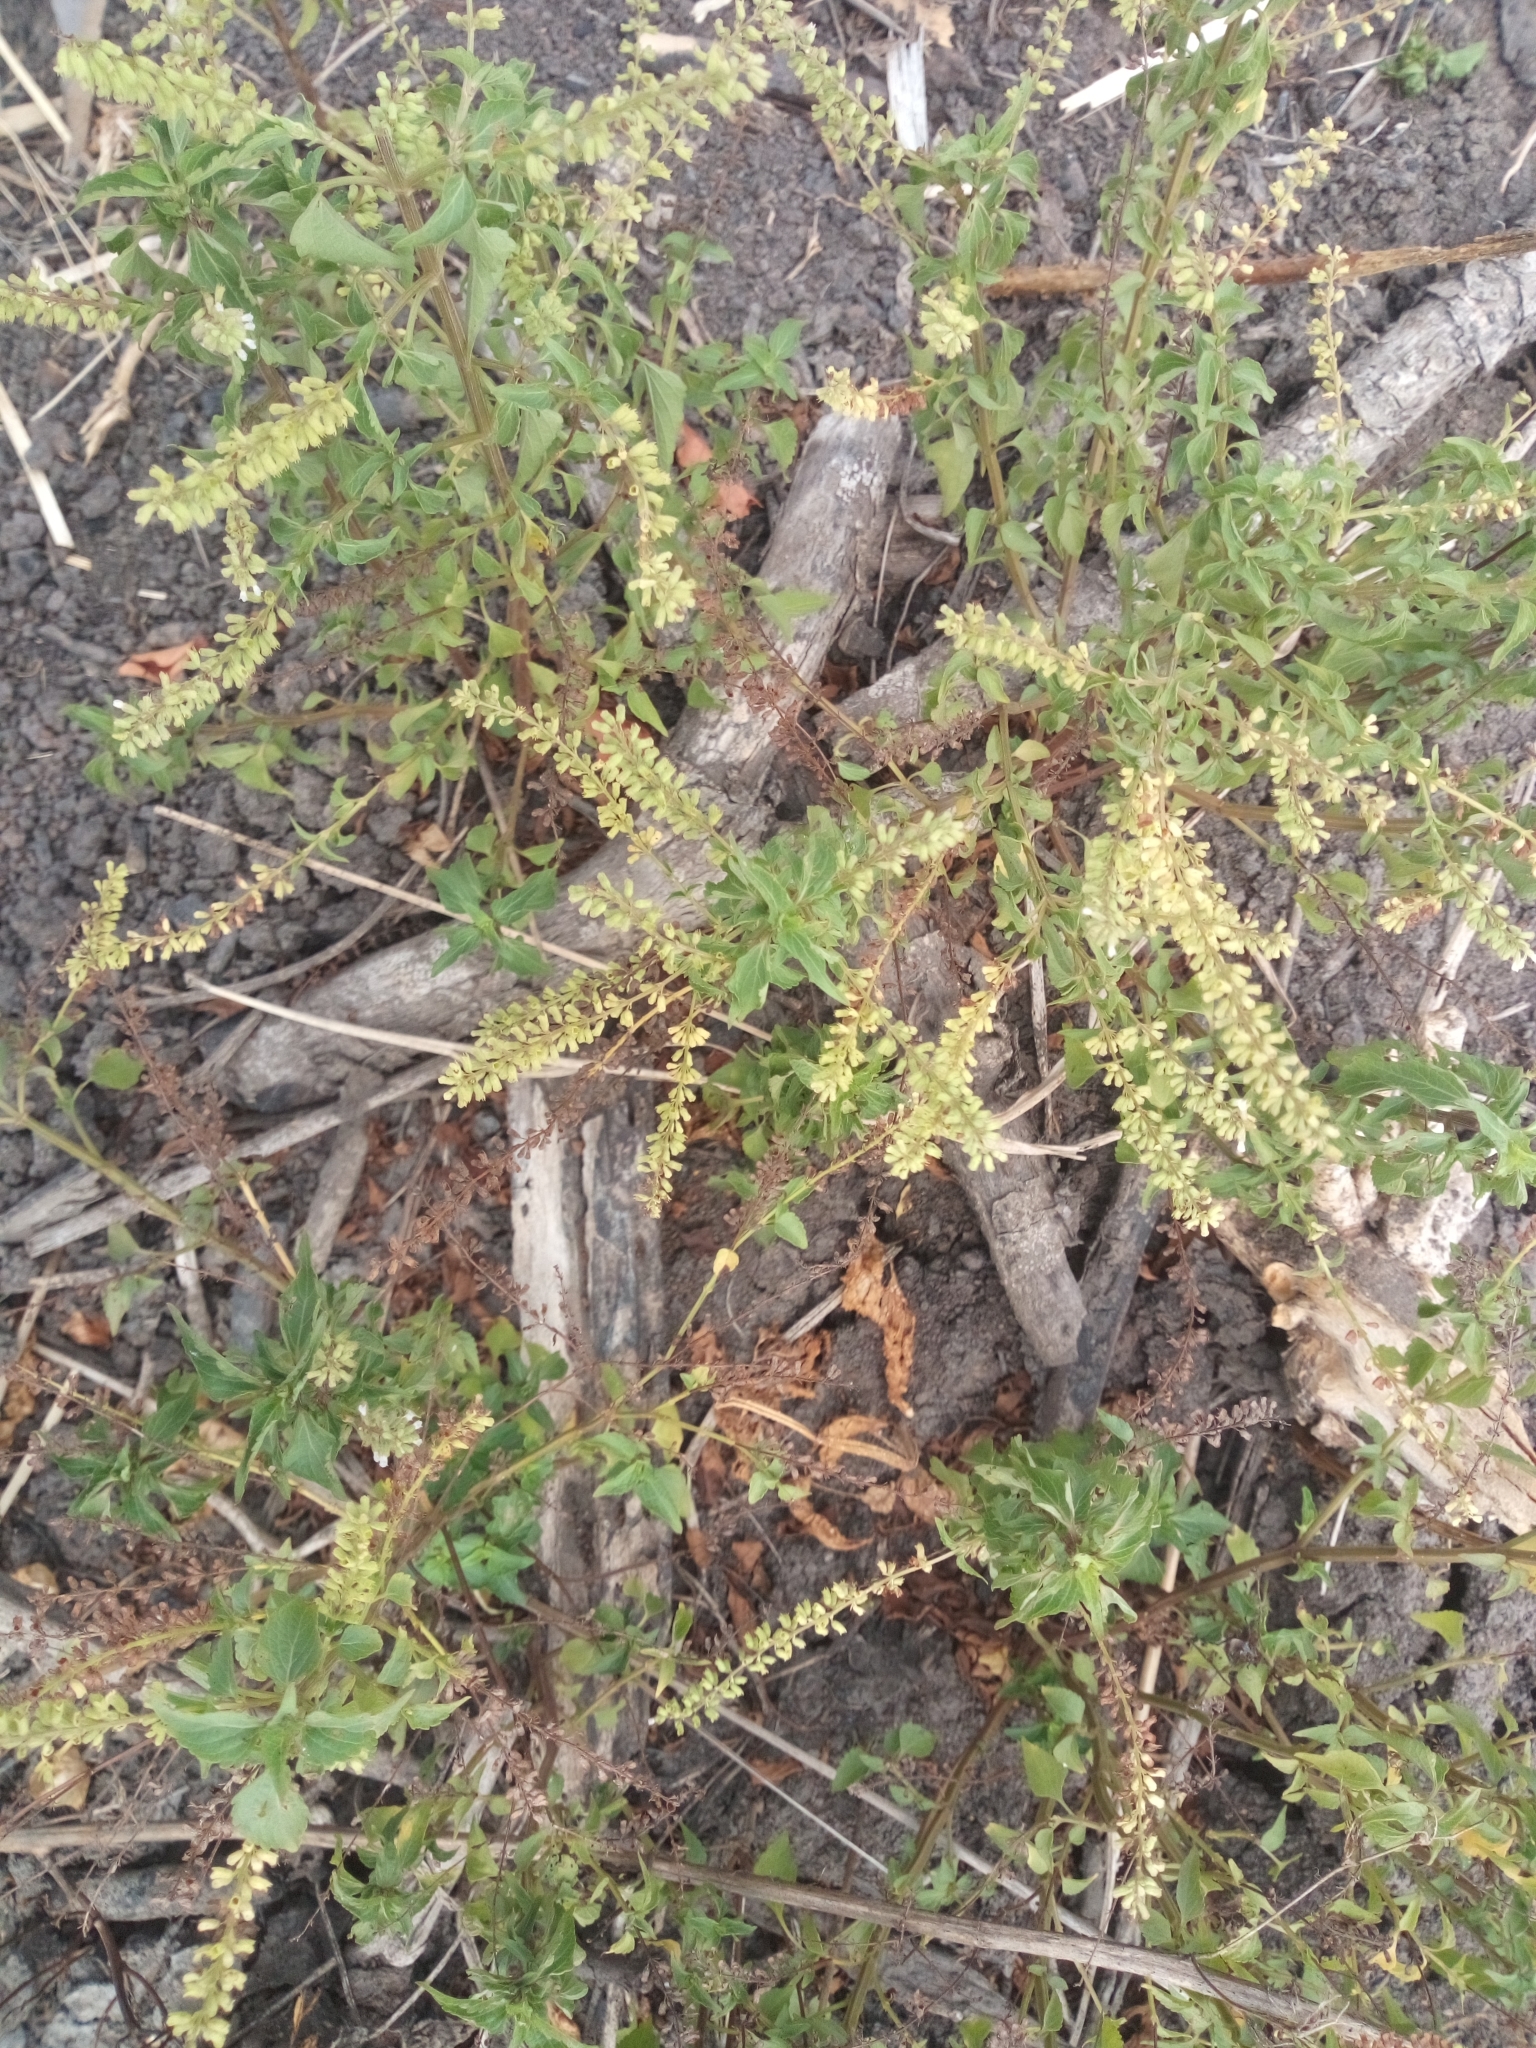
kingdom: Plantae
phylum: Tracheophyta
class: Magnoliopsida
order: Lamiales
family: Lamiaceae
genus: Basilicum
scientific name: Basilicum polystachyon
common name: Musk-basil
